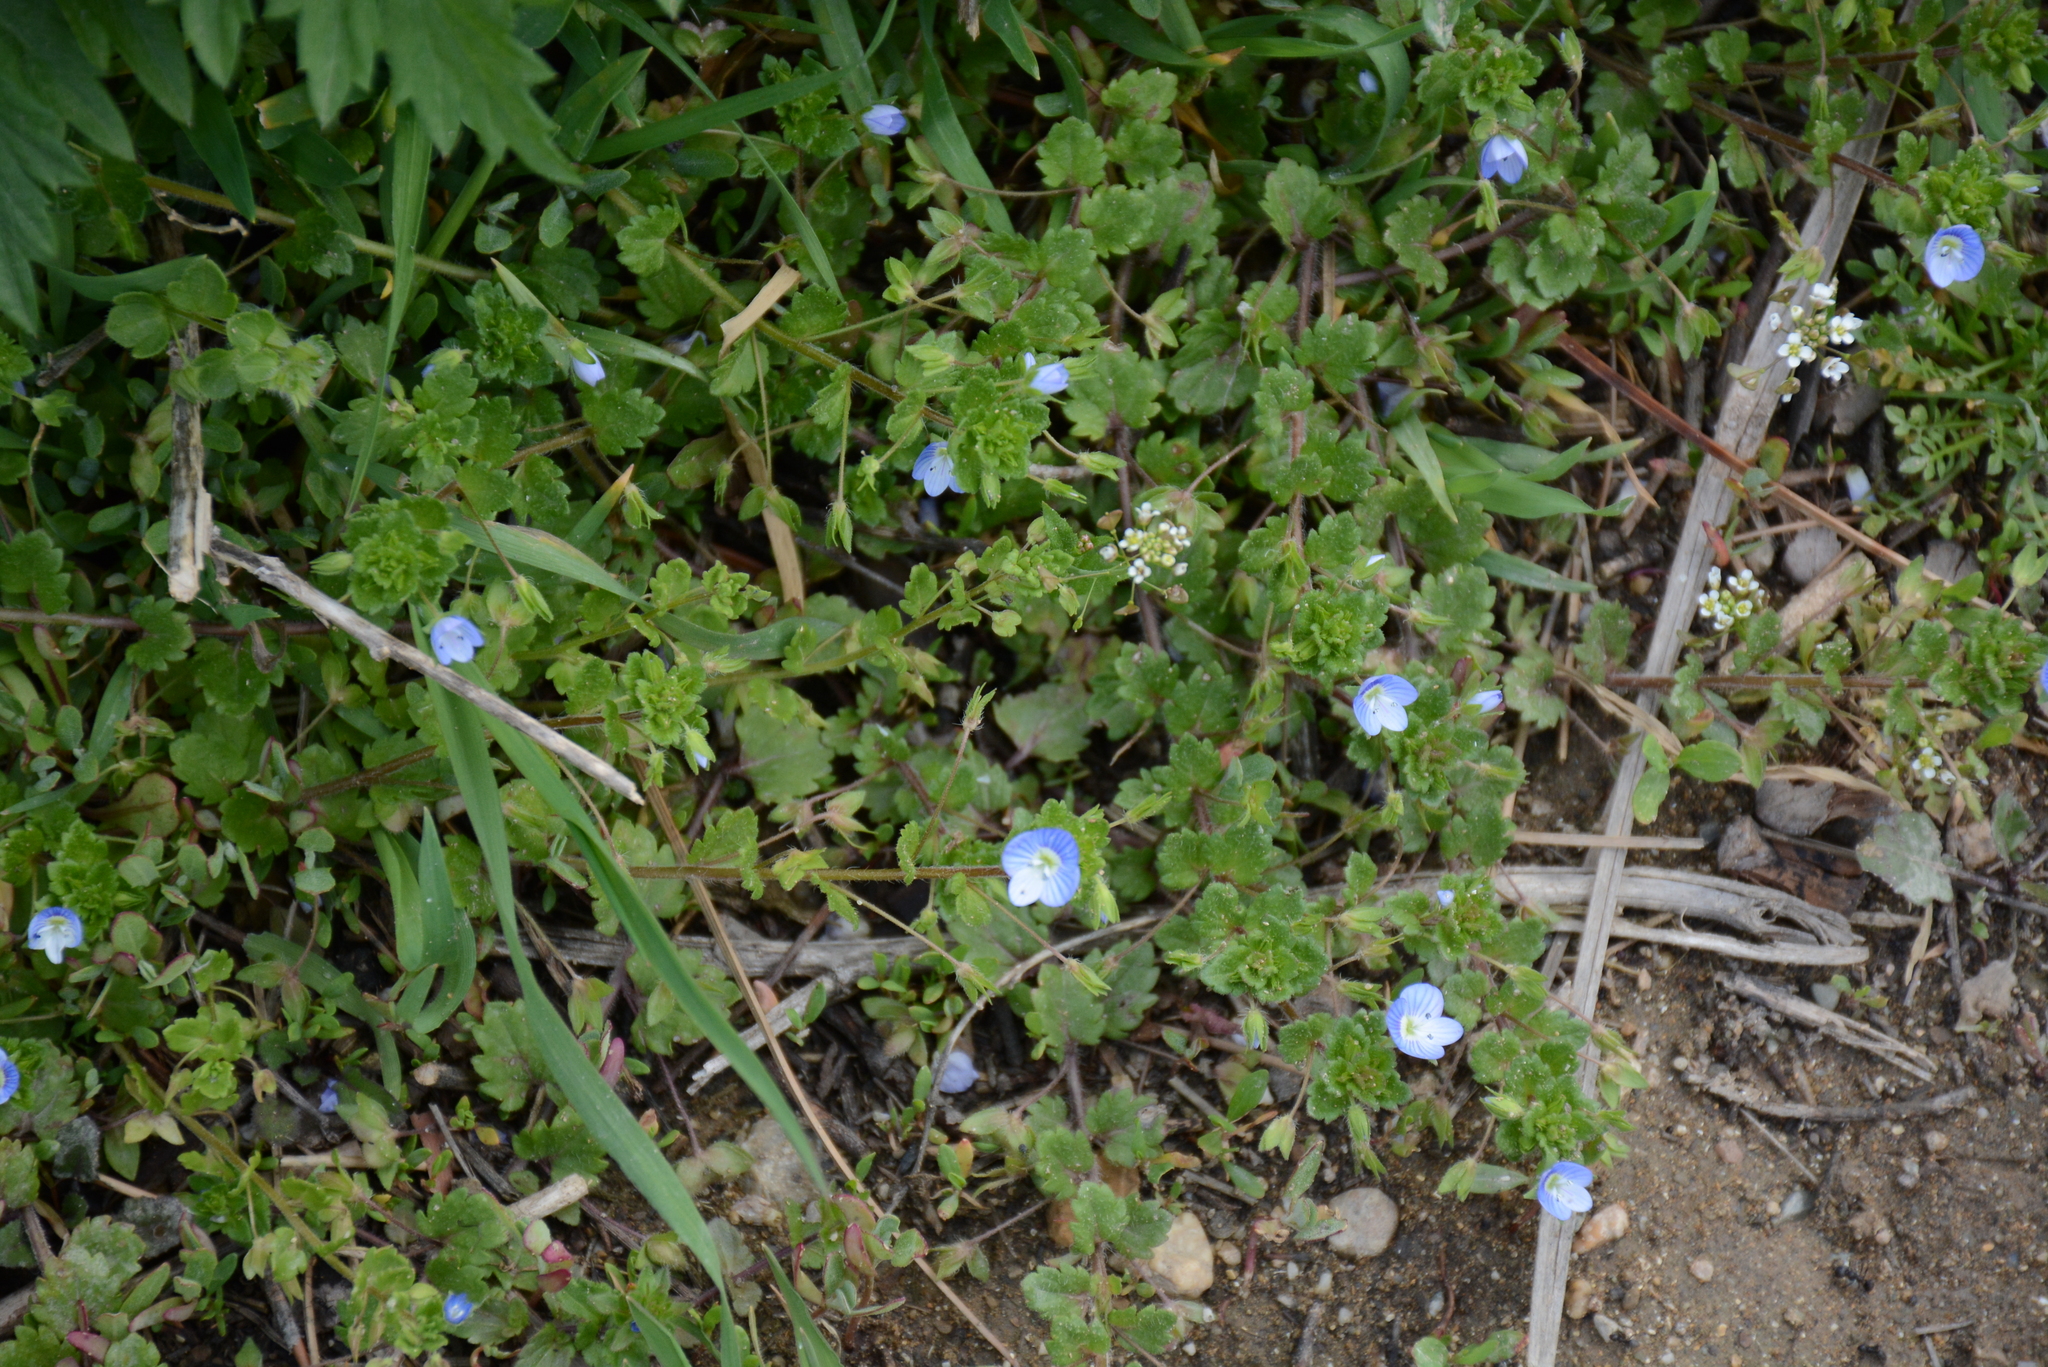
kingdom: Plantae
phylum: Tracheophyta
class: Magnoliopsida
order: Lamiales
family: Plantaginaceae
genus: Veronica
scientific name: Veronica persica
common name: Common field-speedwell
